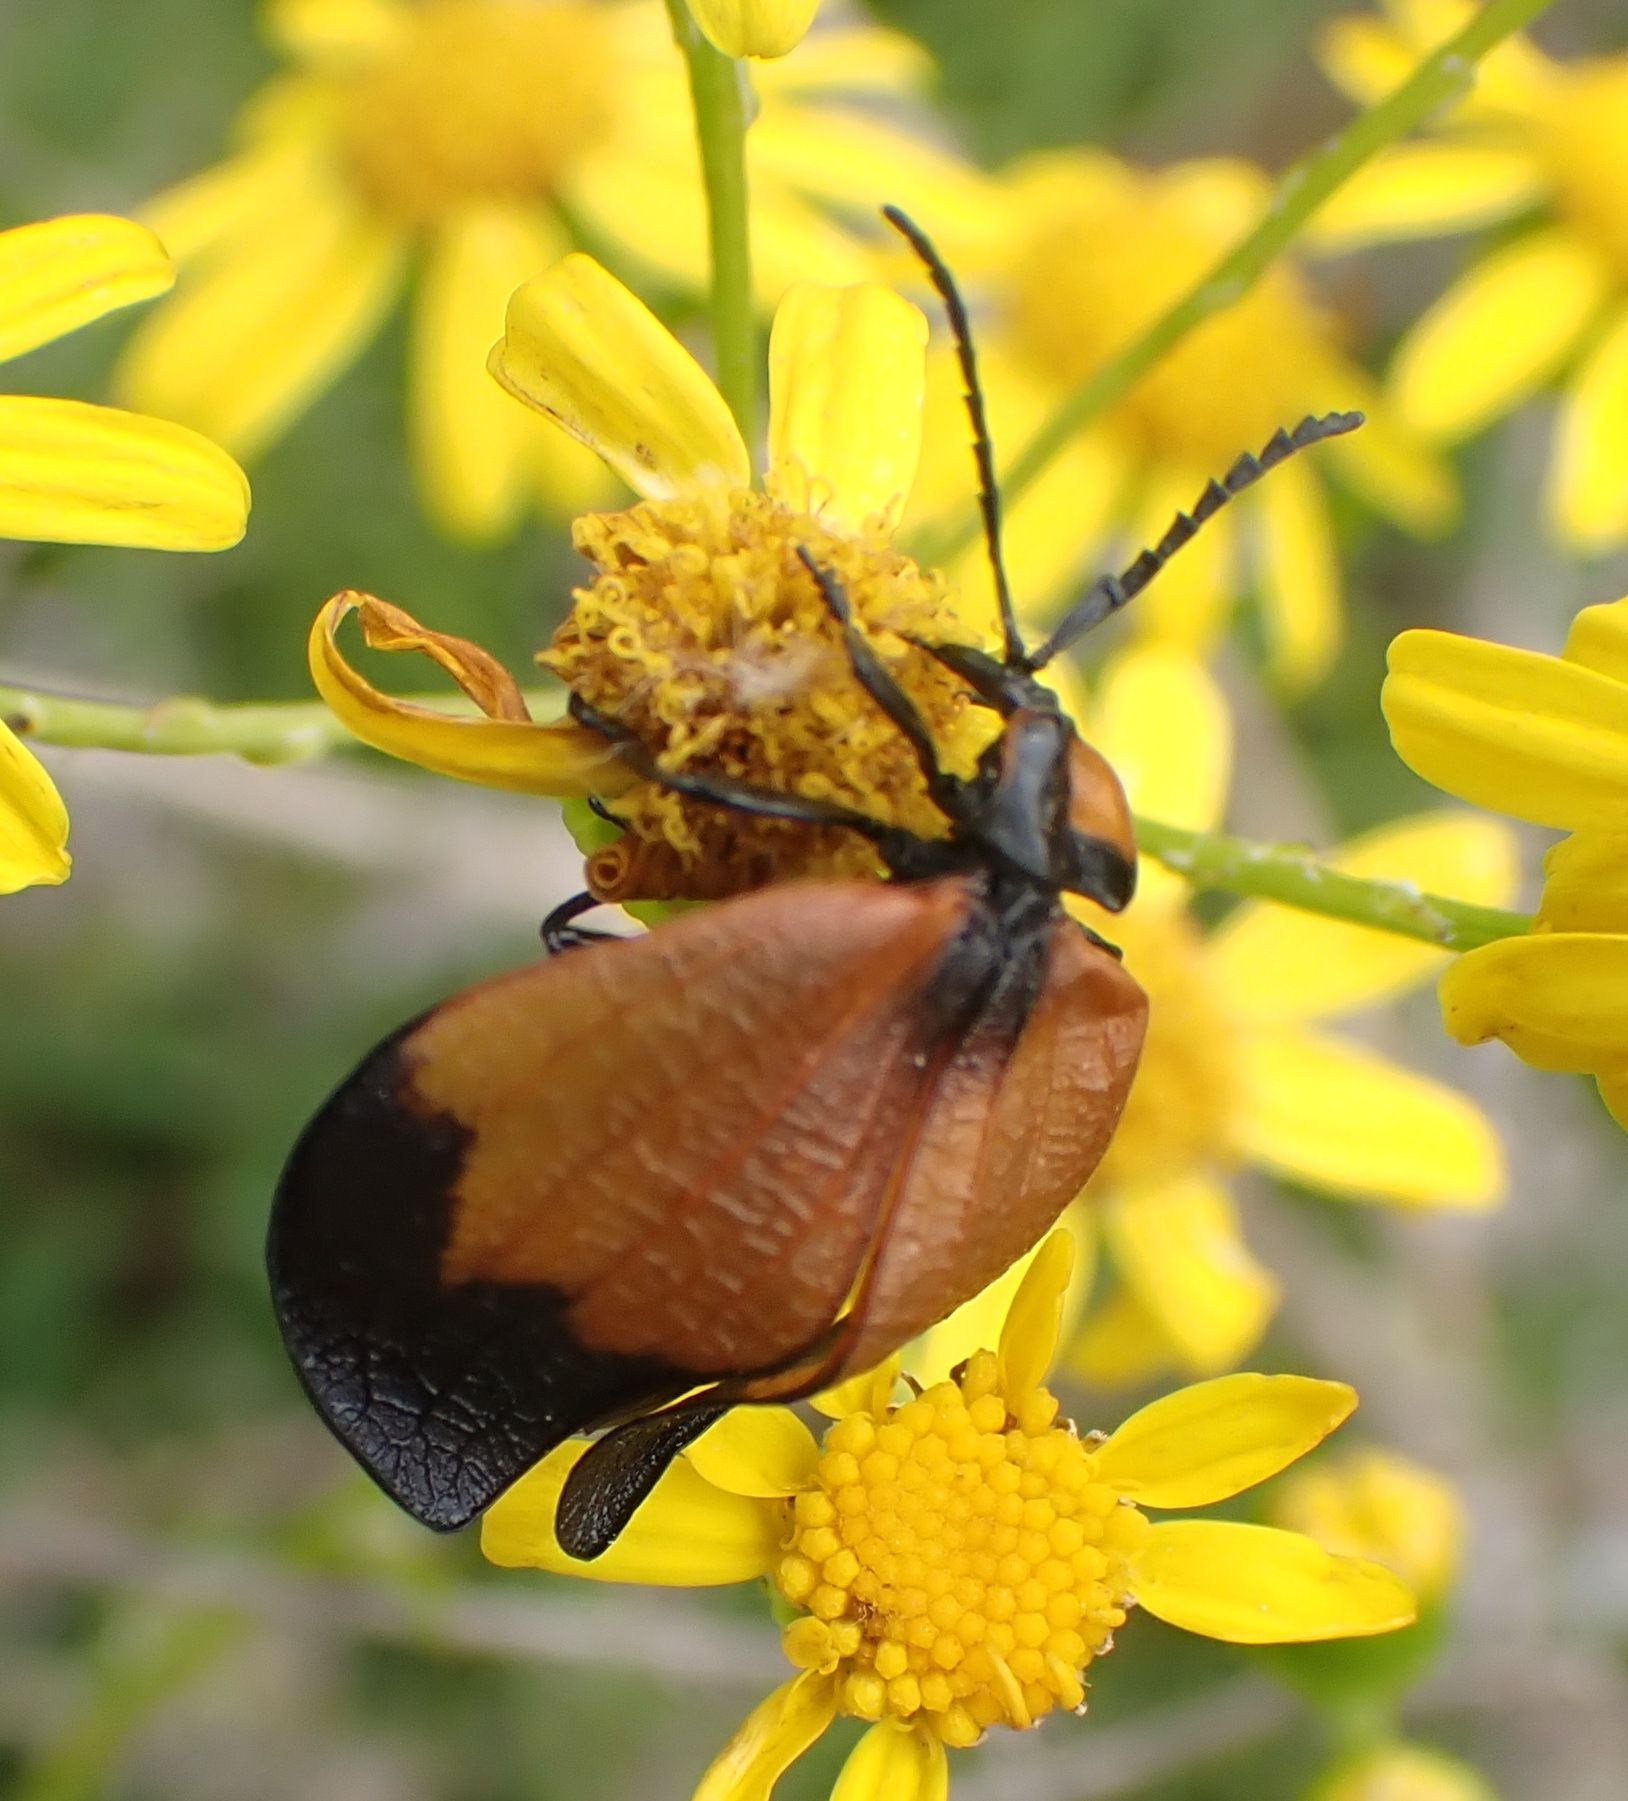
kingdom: Animalia
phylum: Arthropoda
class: Insecta
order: Coleoptera
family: Lycidae
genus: Lycus
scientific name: Lycus
